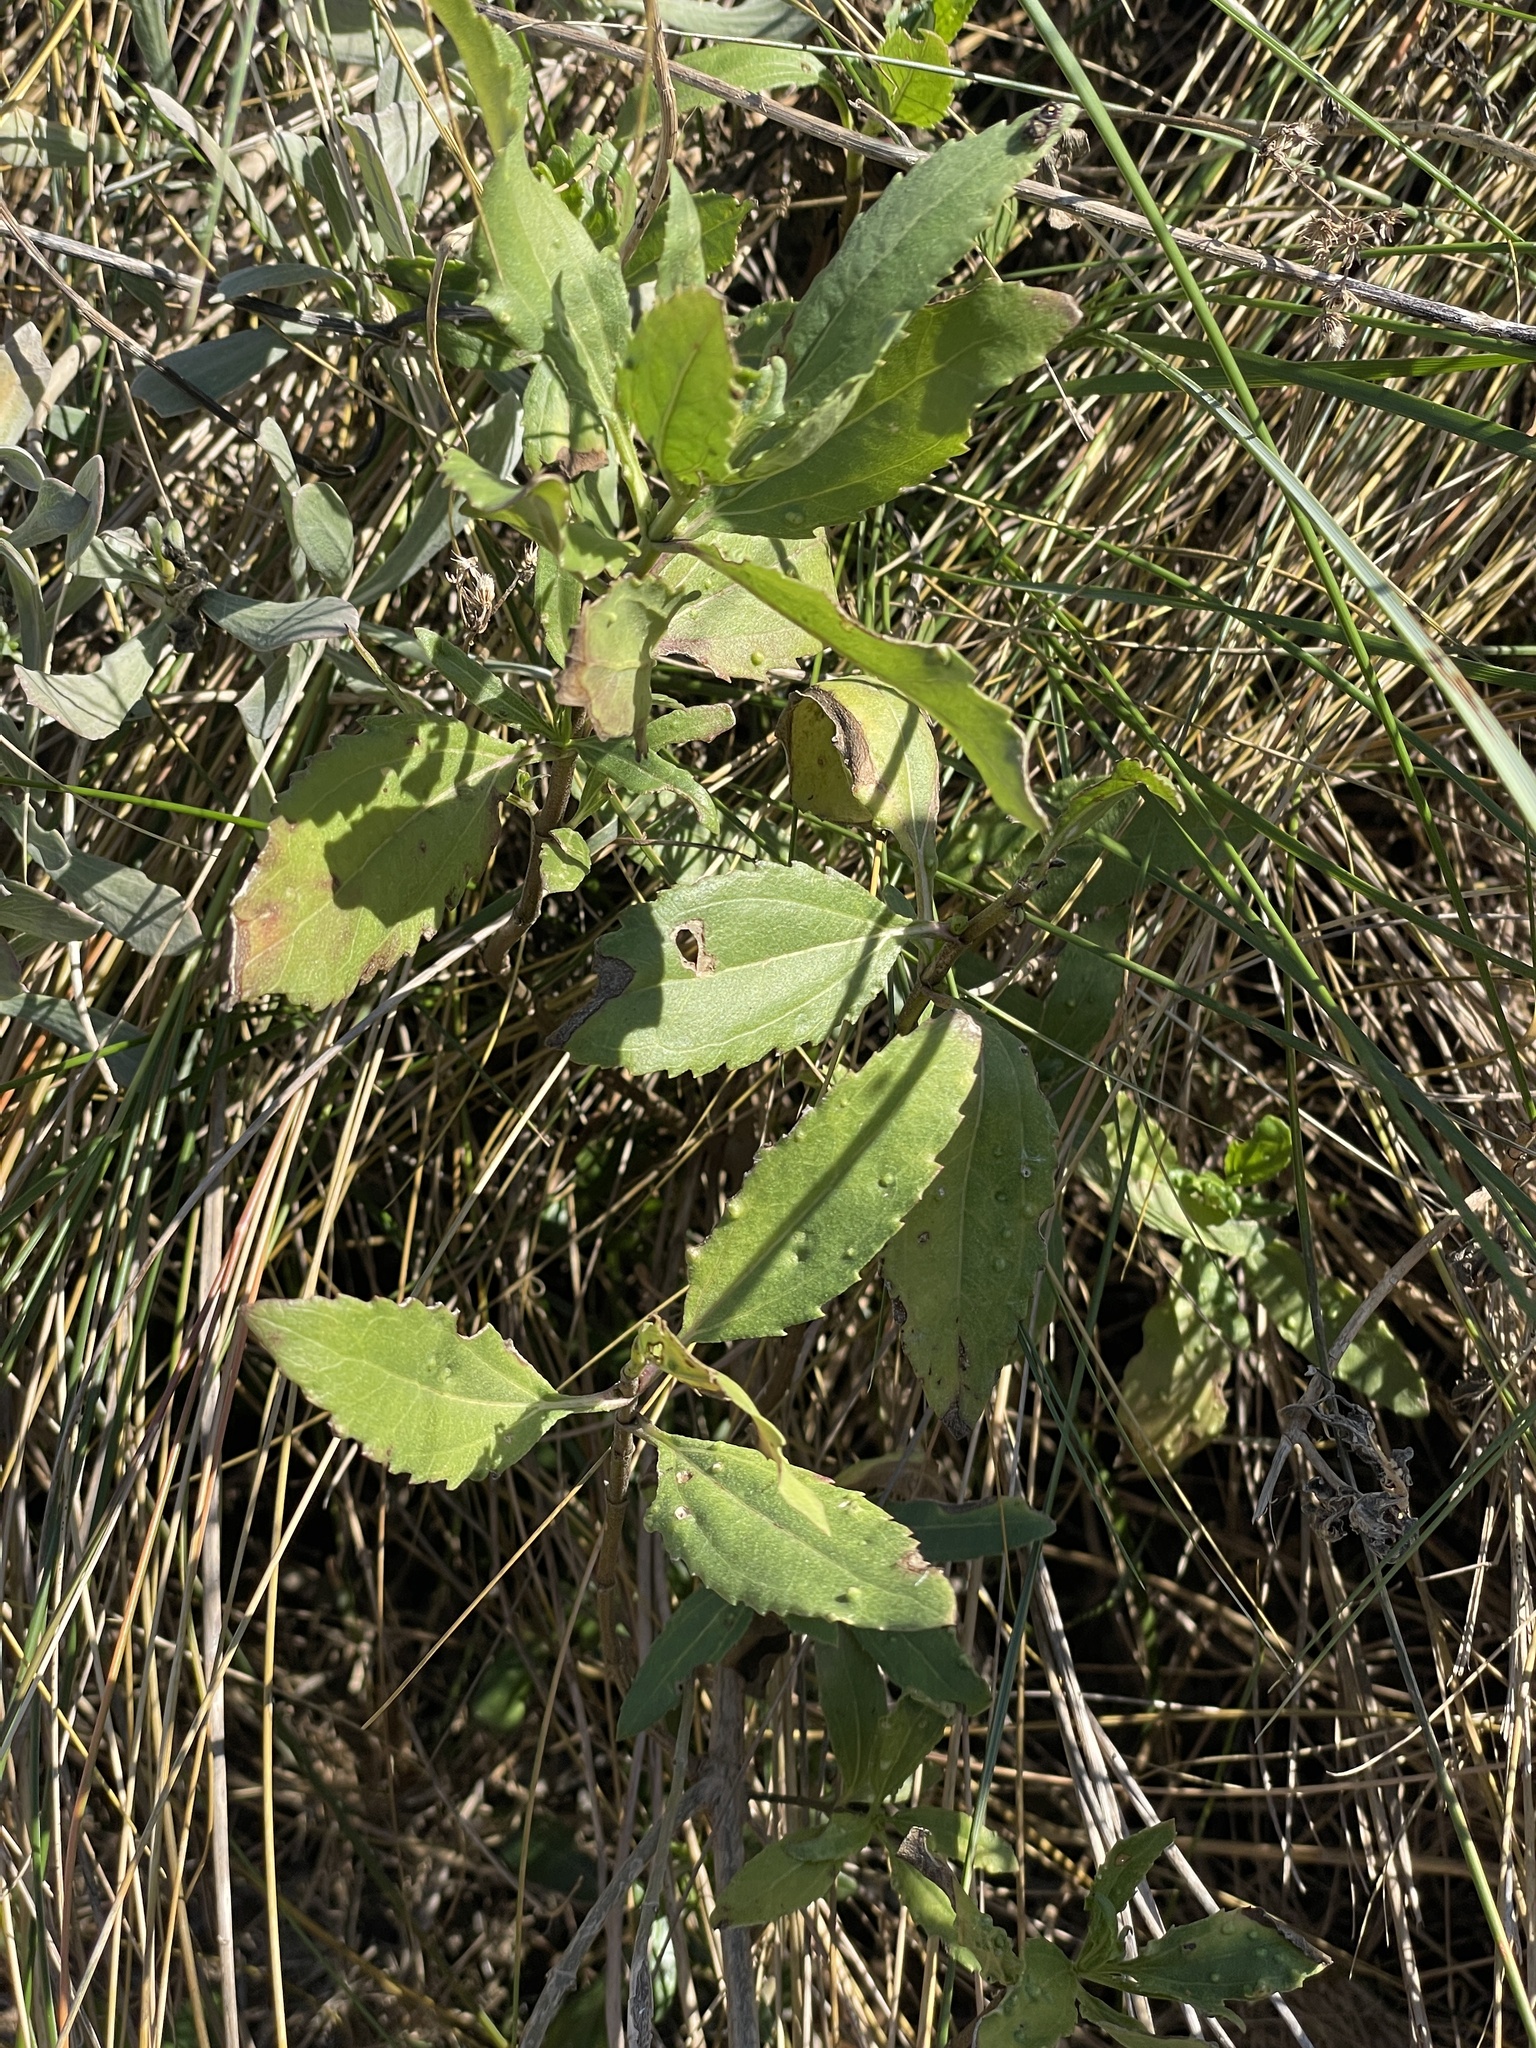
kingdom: Plantae
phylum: Tracheophyta
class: Magnoliopsida
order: Asterales
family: Asteraceae
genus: Iva
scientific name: Iva frutescens
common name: Big-leaved marsh-elder
